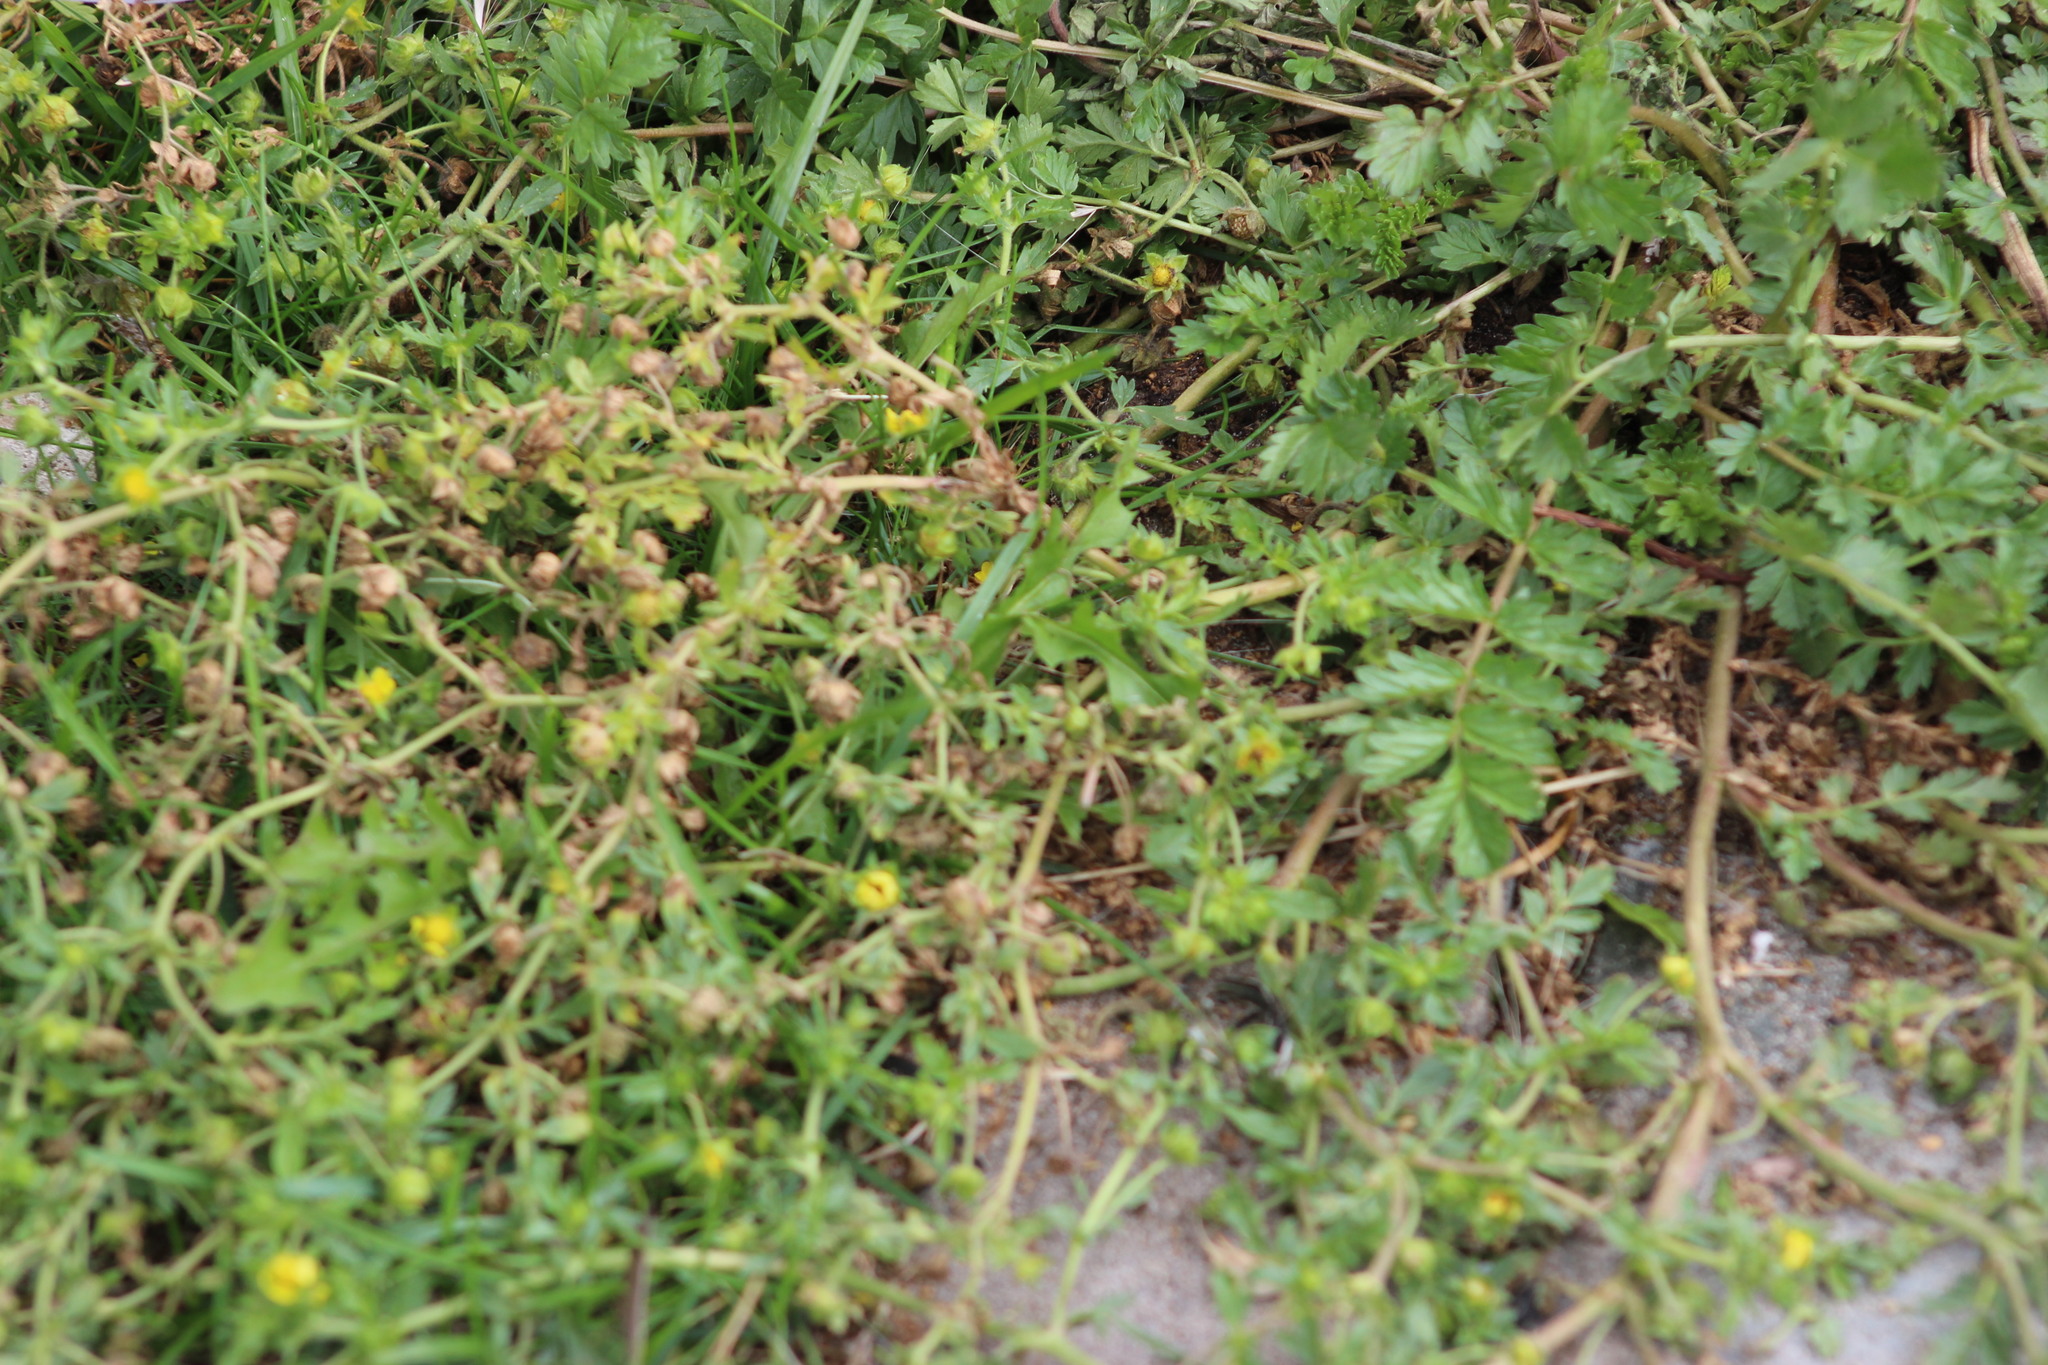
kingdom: Plantae
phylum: Tracheophyta
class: Magnoliopsida
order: Rosales
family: Rosaceae
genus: Potentilla
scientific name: Potentilla supina
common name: Prostrate cinquefoil
